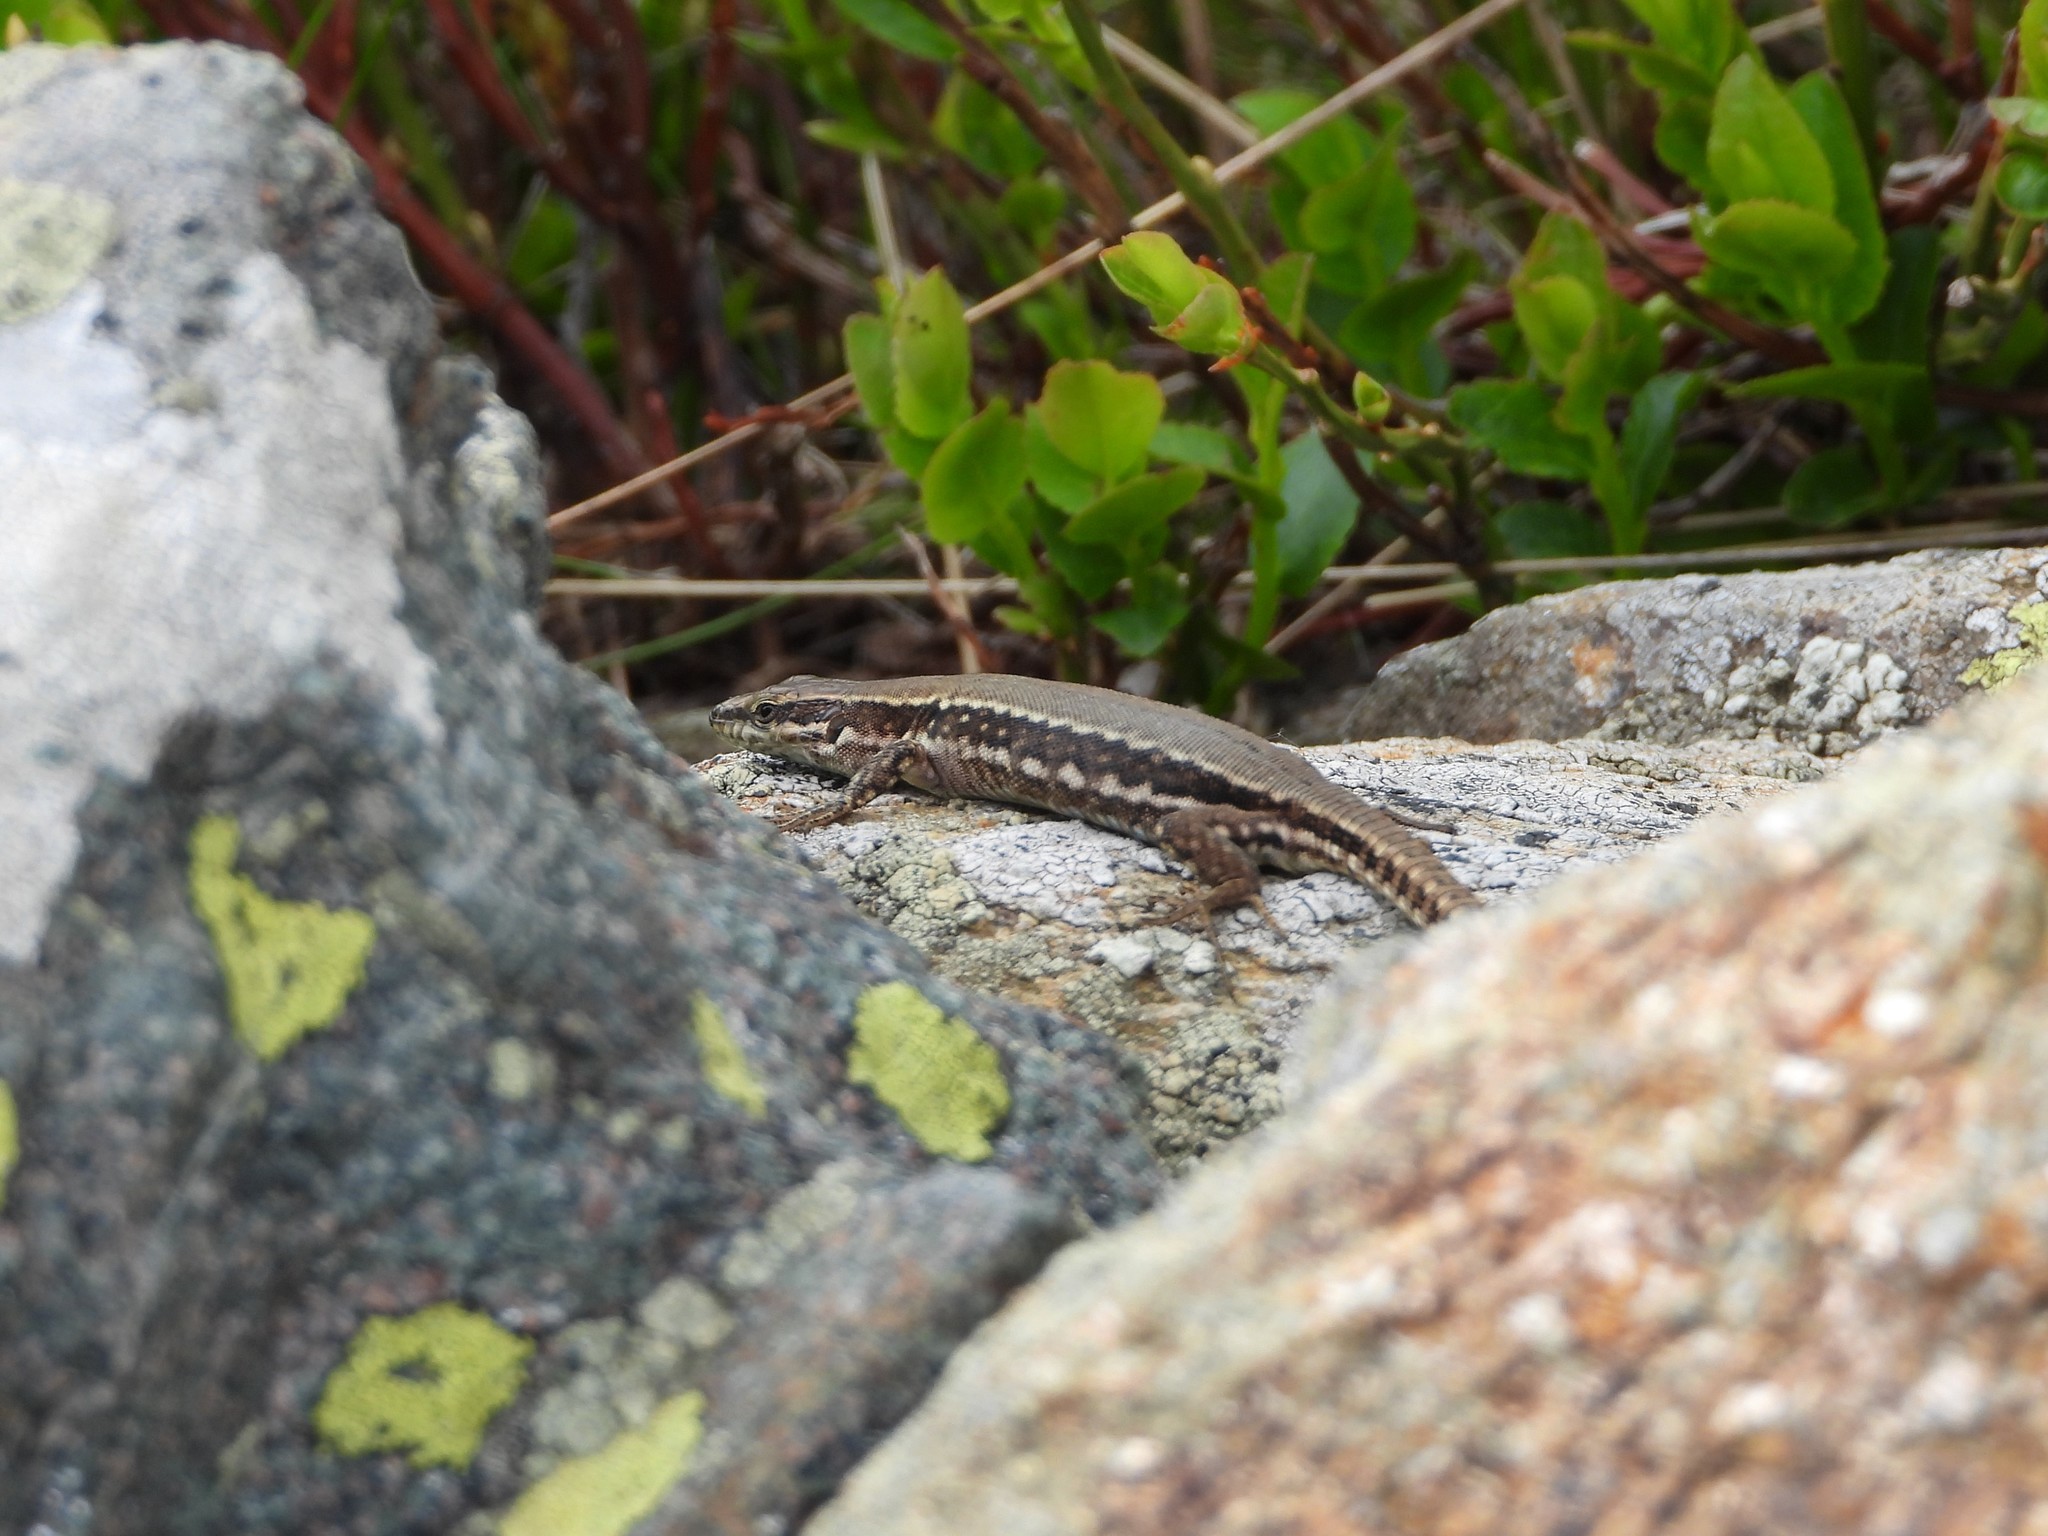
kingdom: Animalia
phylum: Chordata
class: Squamata
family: Lacertidae
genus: Podarcis
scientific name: Podarcis muralis
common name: Common wall lizard
